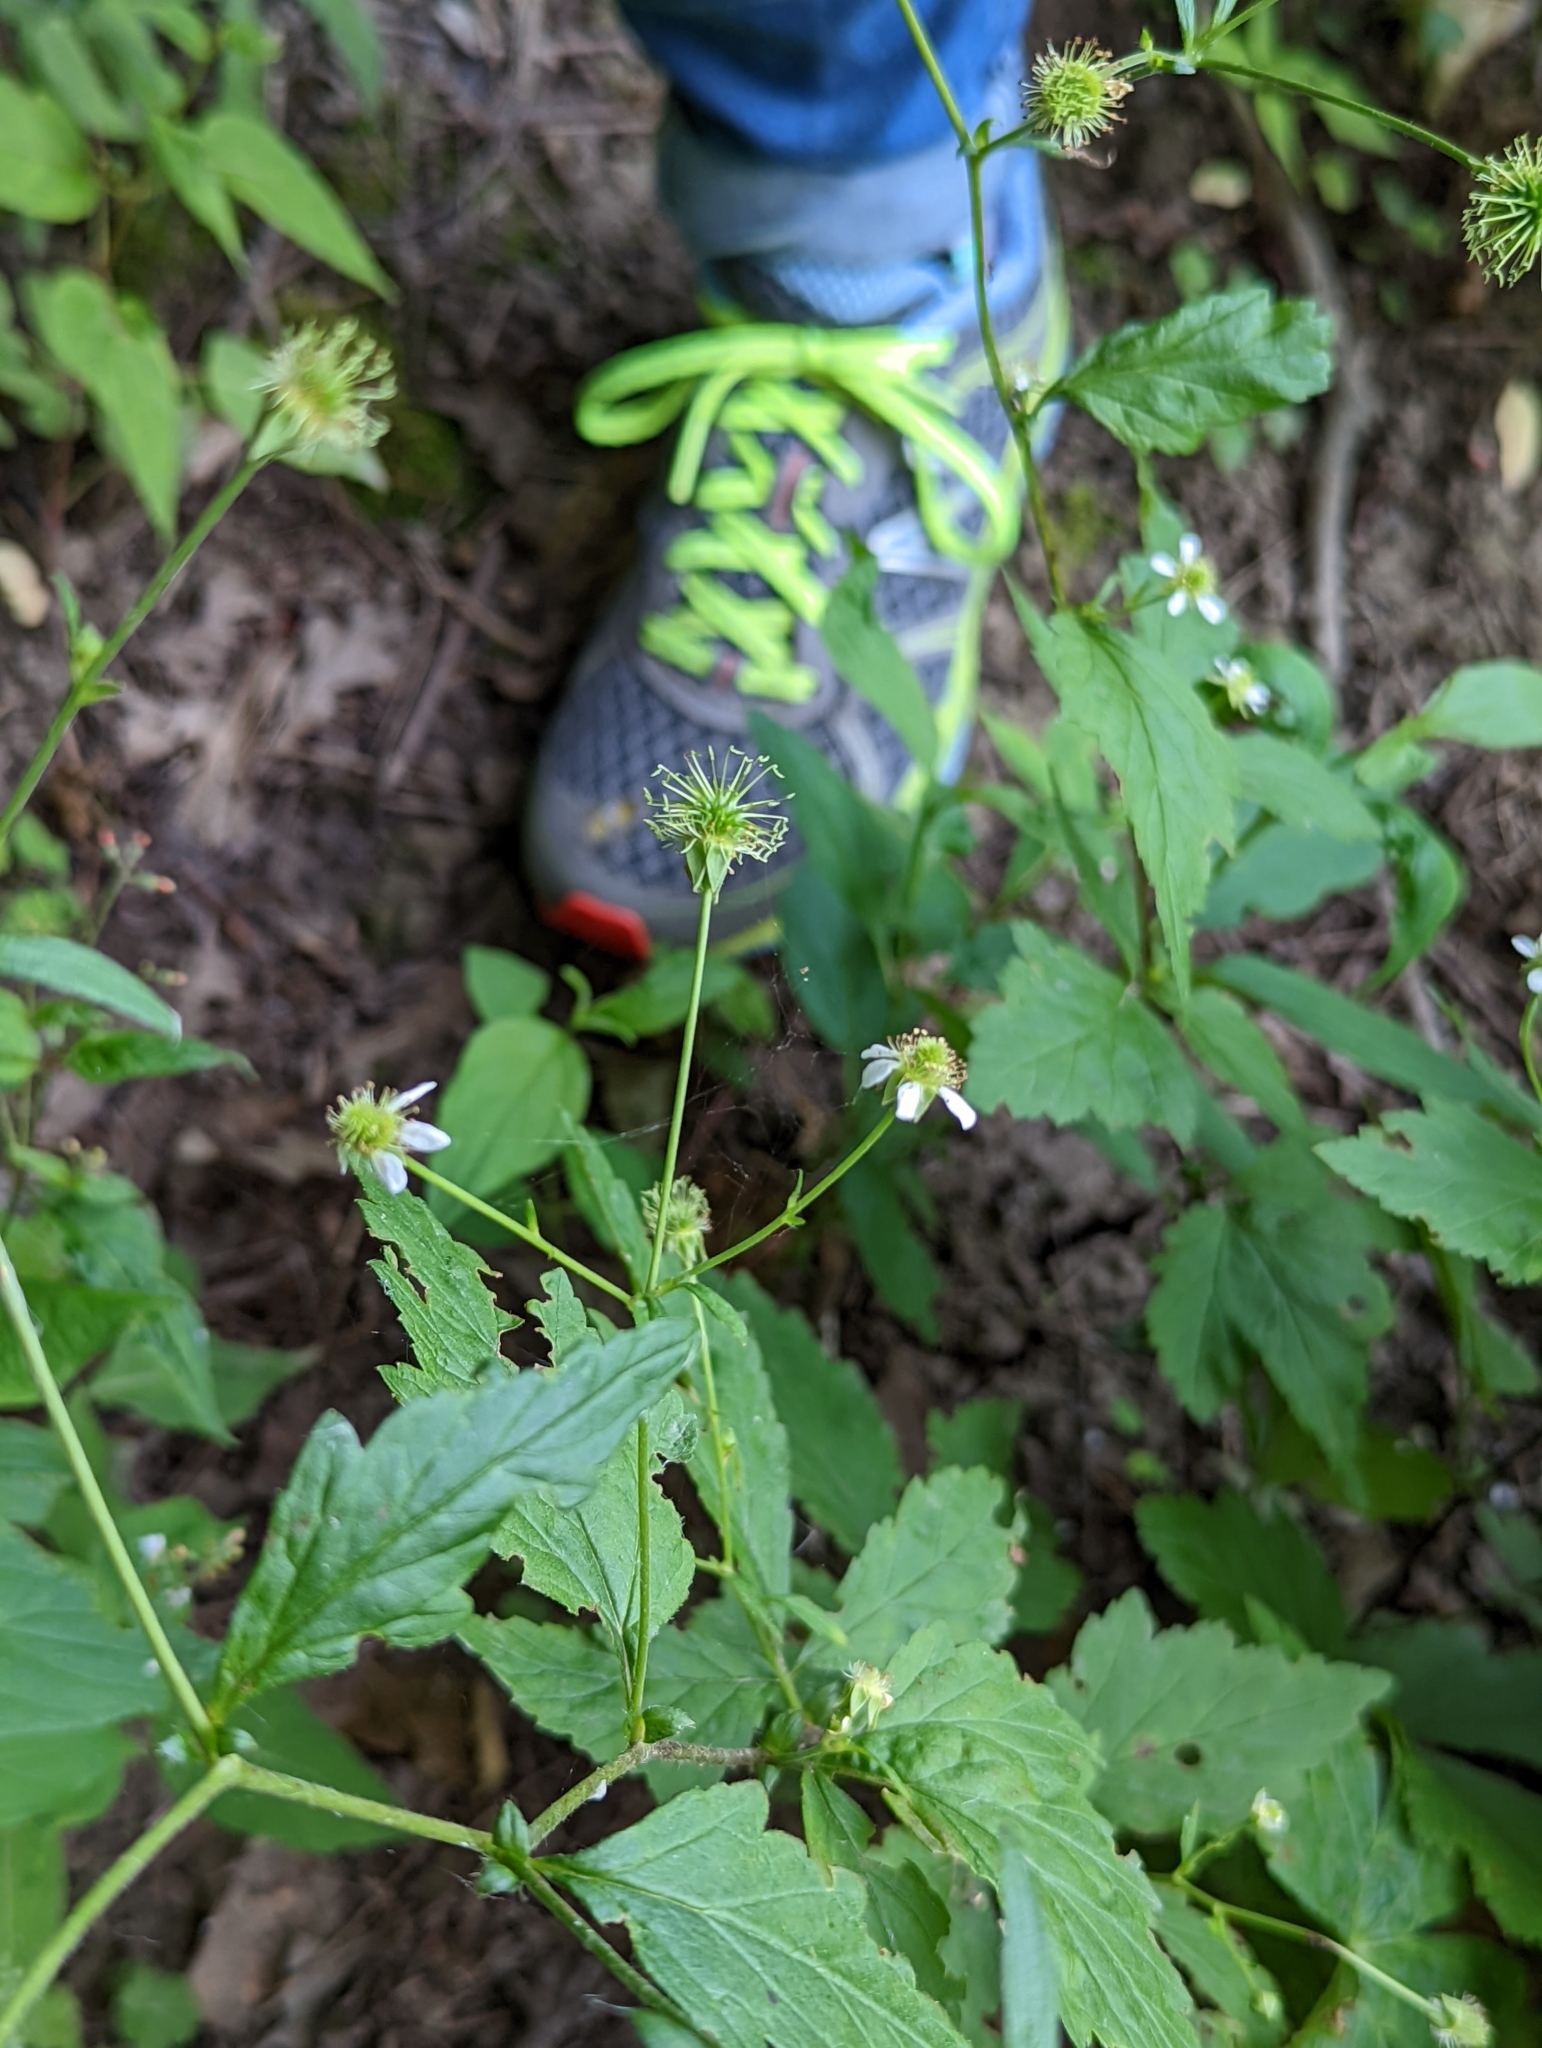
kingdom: Plantae
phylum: Tracheophyta
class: Magnoliopsida
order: Rosales
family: Rosaceae
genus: Geum
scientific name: Geum canadense
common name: White avens
